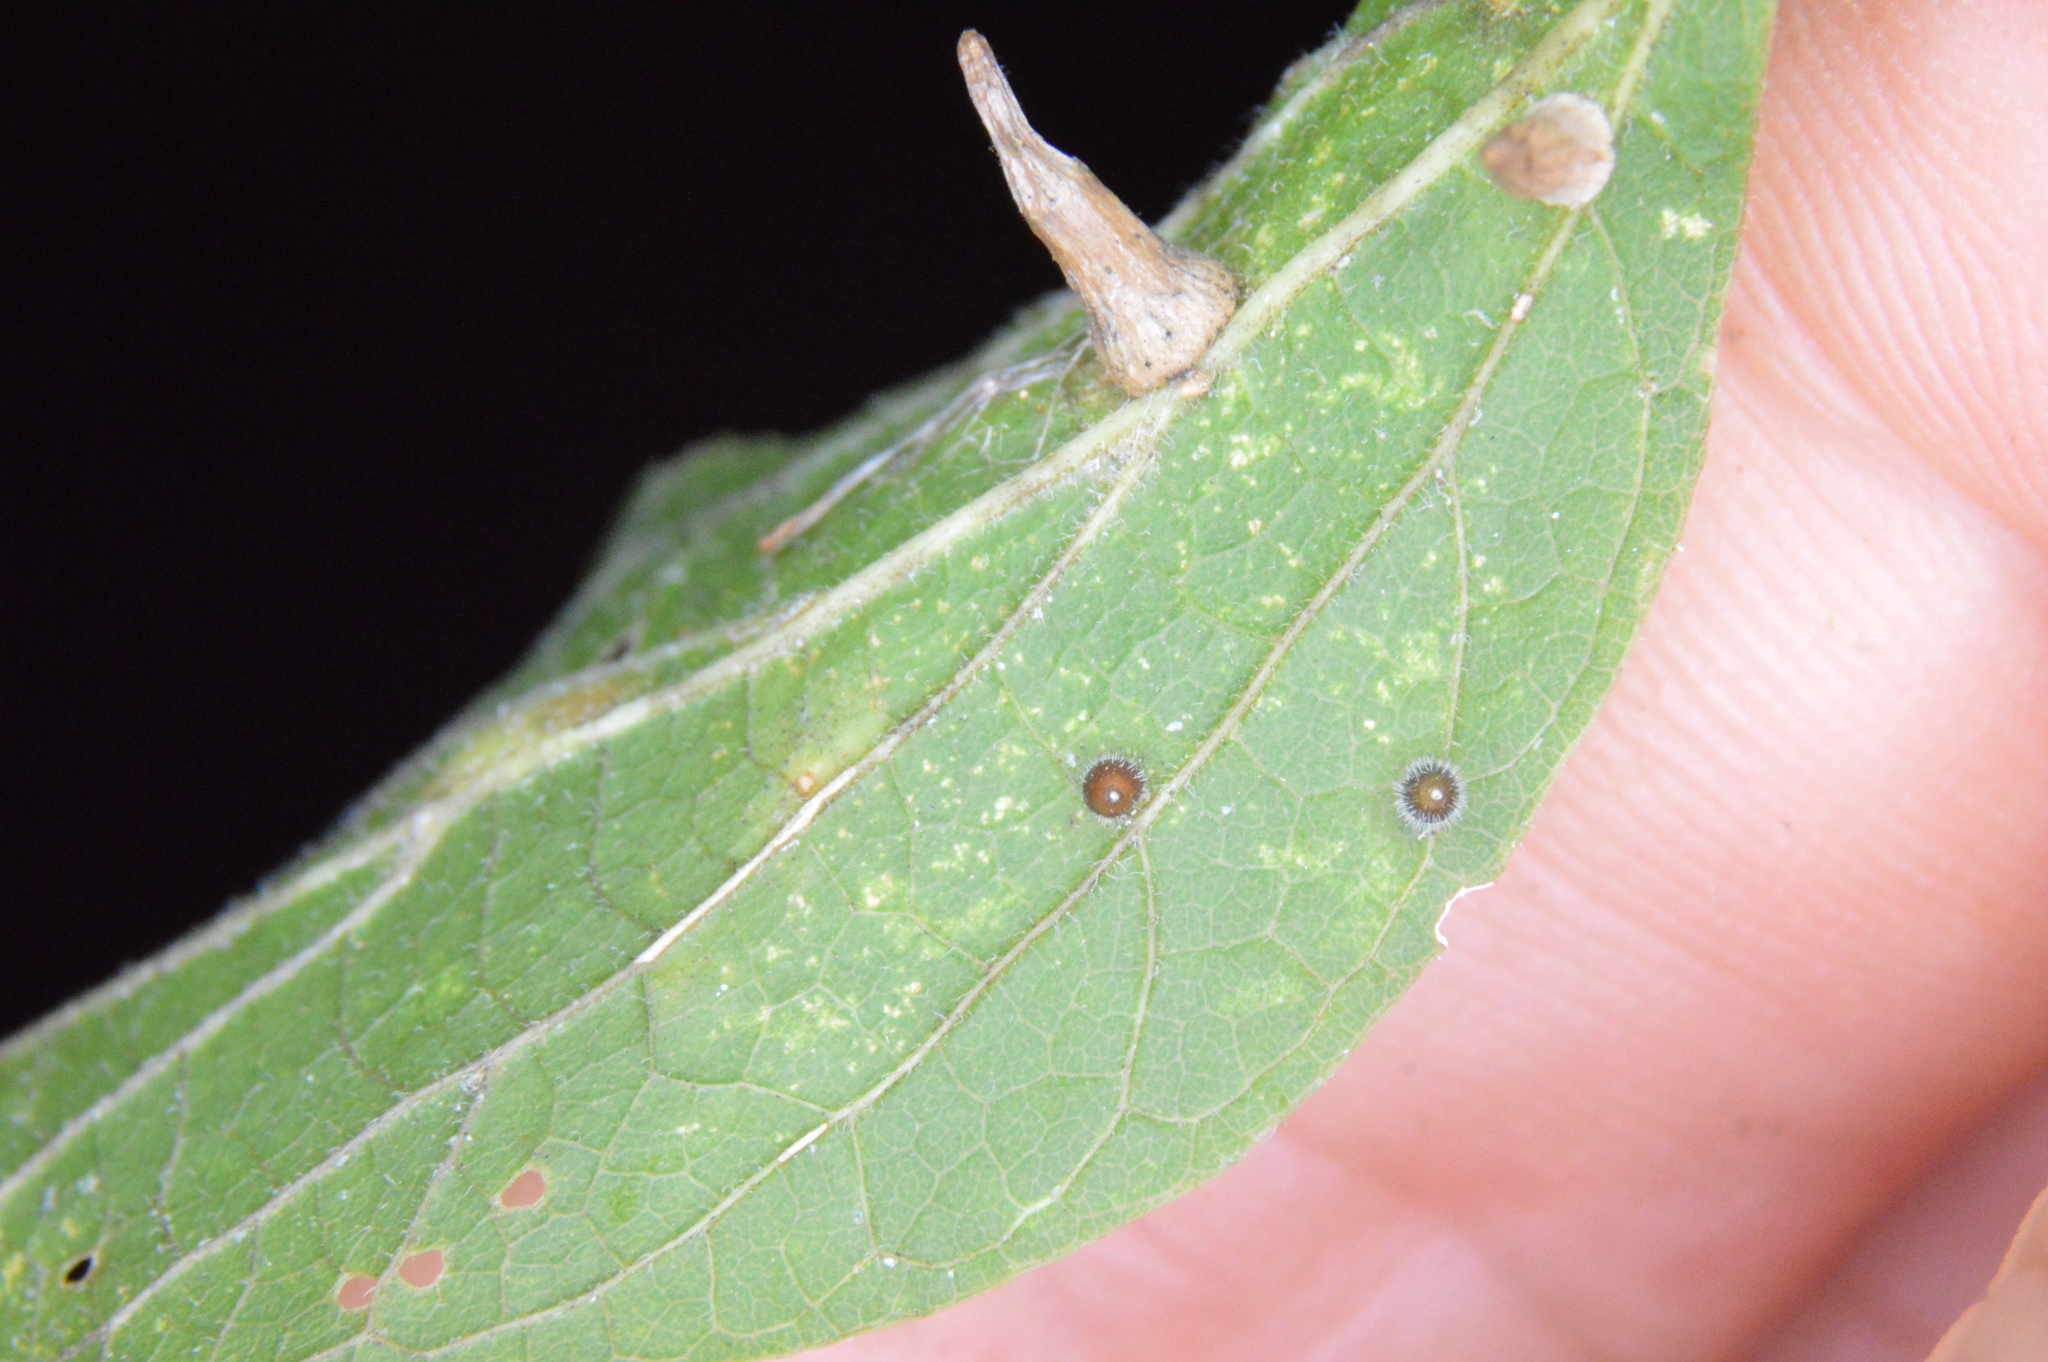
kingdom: Animalia
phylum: Arthropoda
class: Insecta
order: Diptera
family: Cecidomyiidae
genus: Celticecis
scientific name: Celticecis cupiformis
